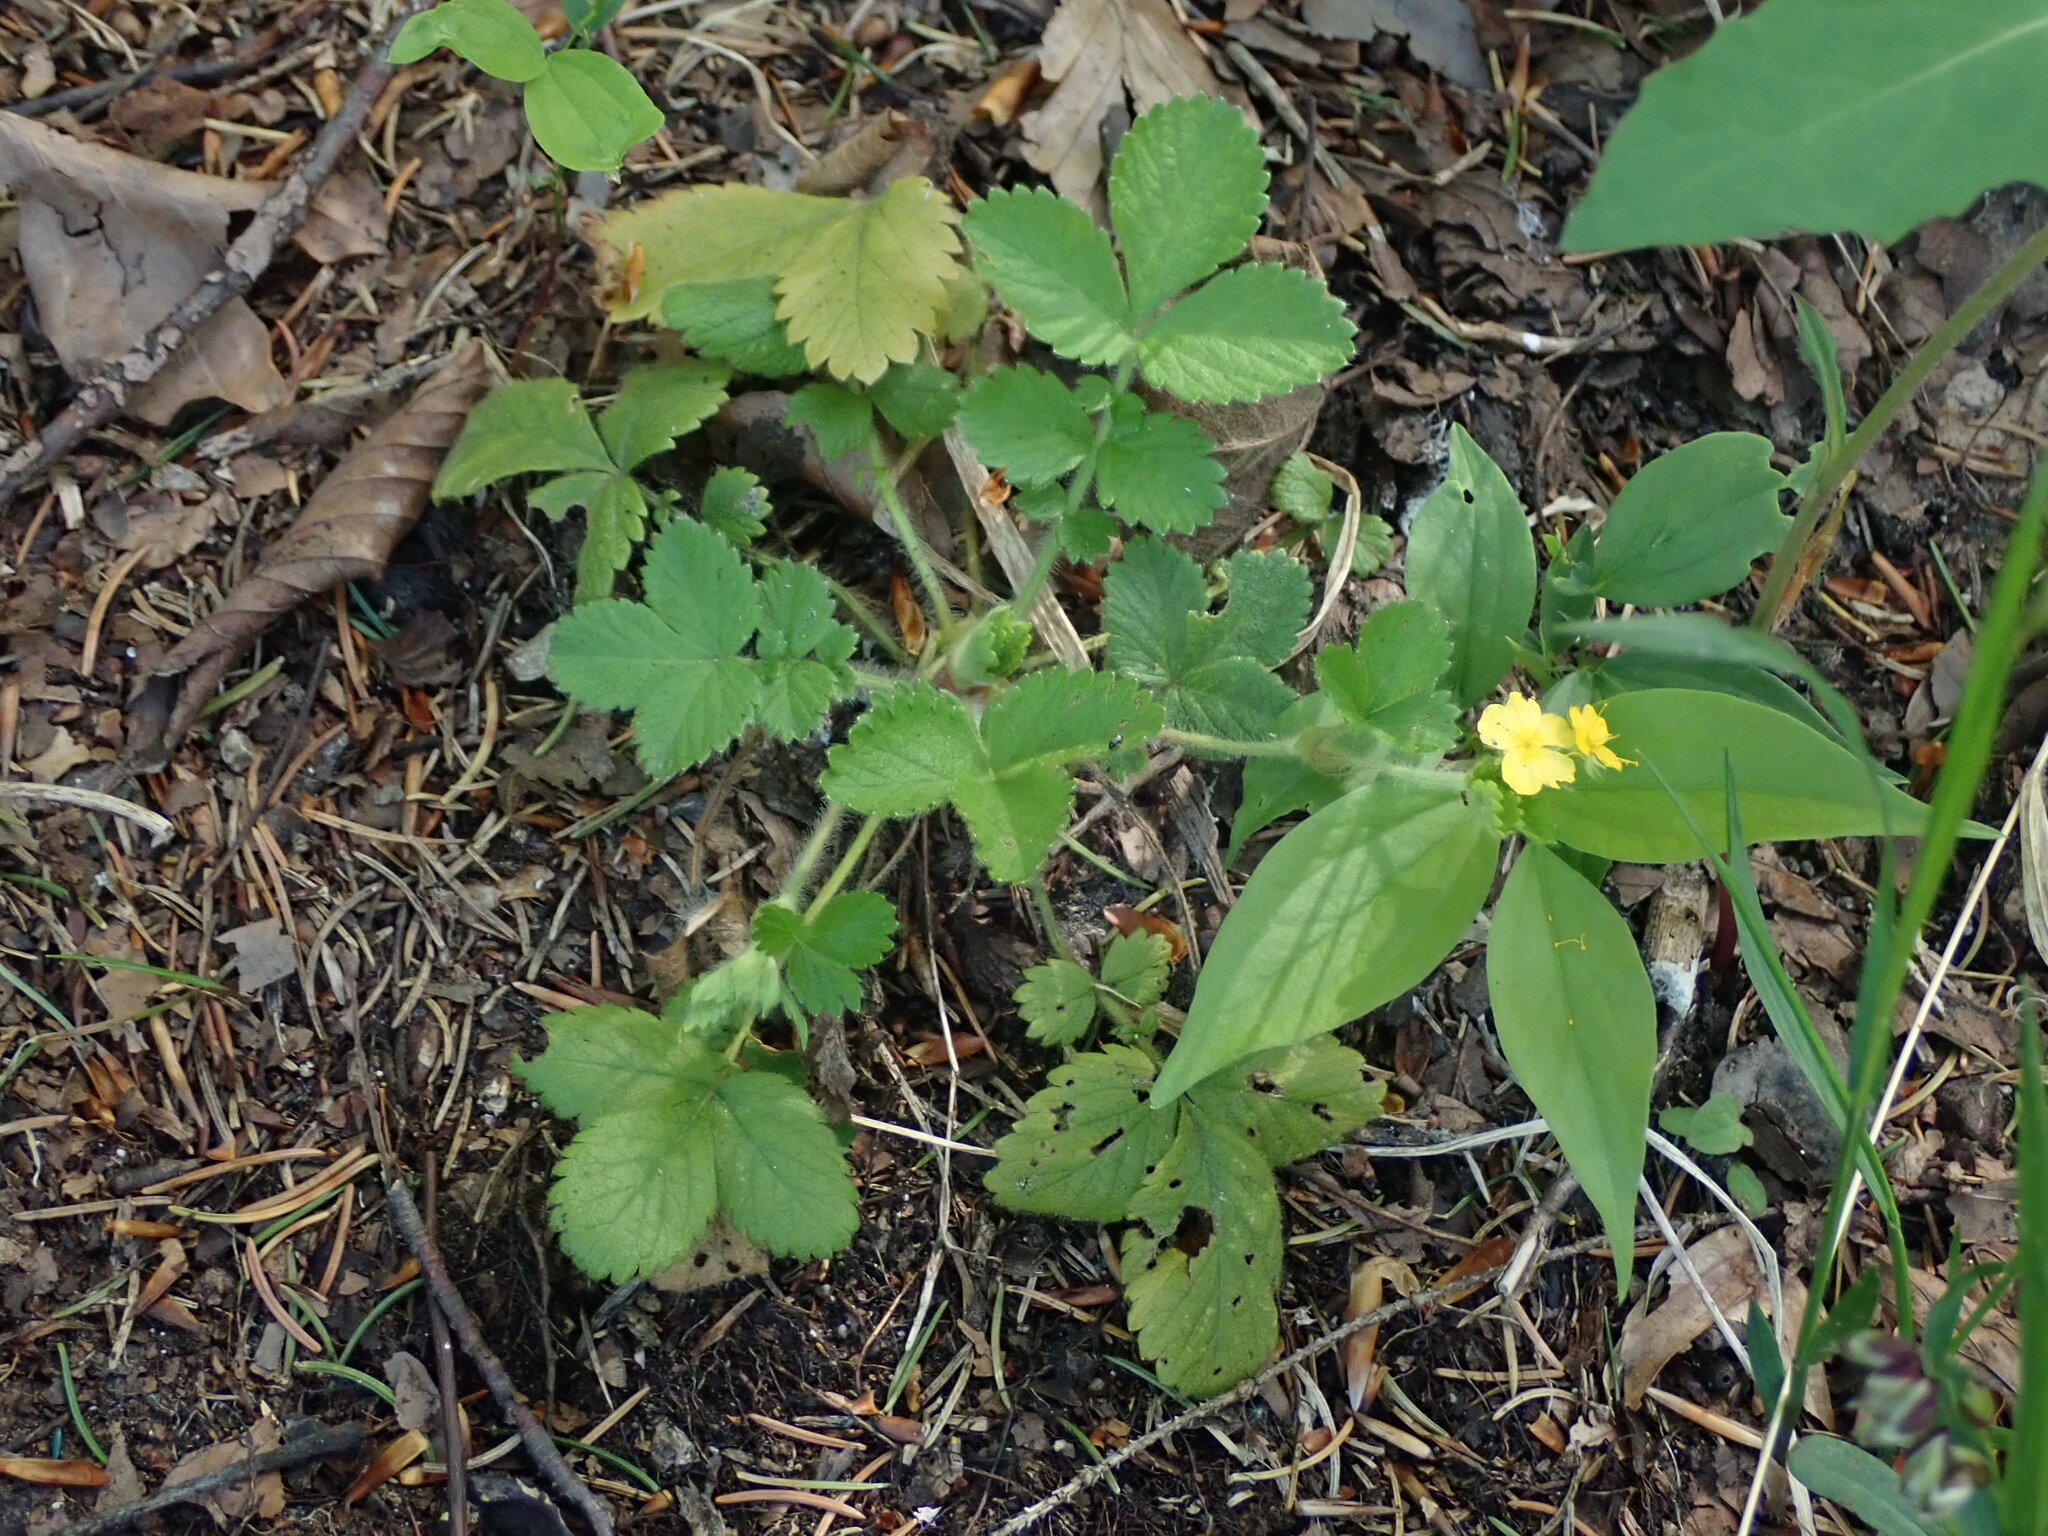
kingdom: Plantae
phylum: Tracheophyta
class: Magnoliopsida
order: Rosales
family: Rosaceae
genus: Aremonia
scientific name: Aremonia agrimonoides
